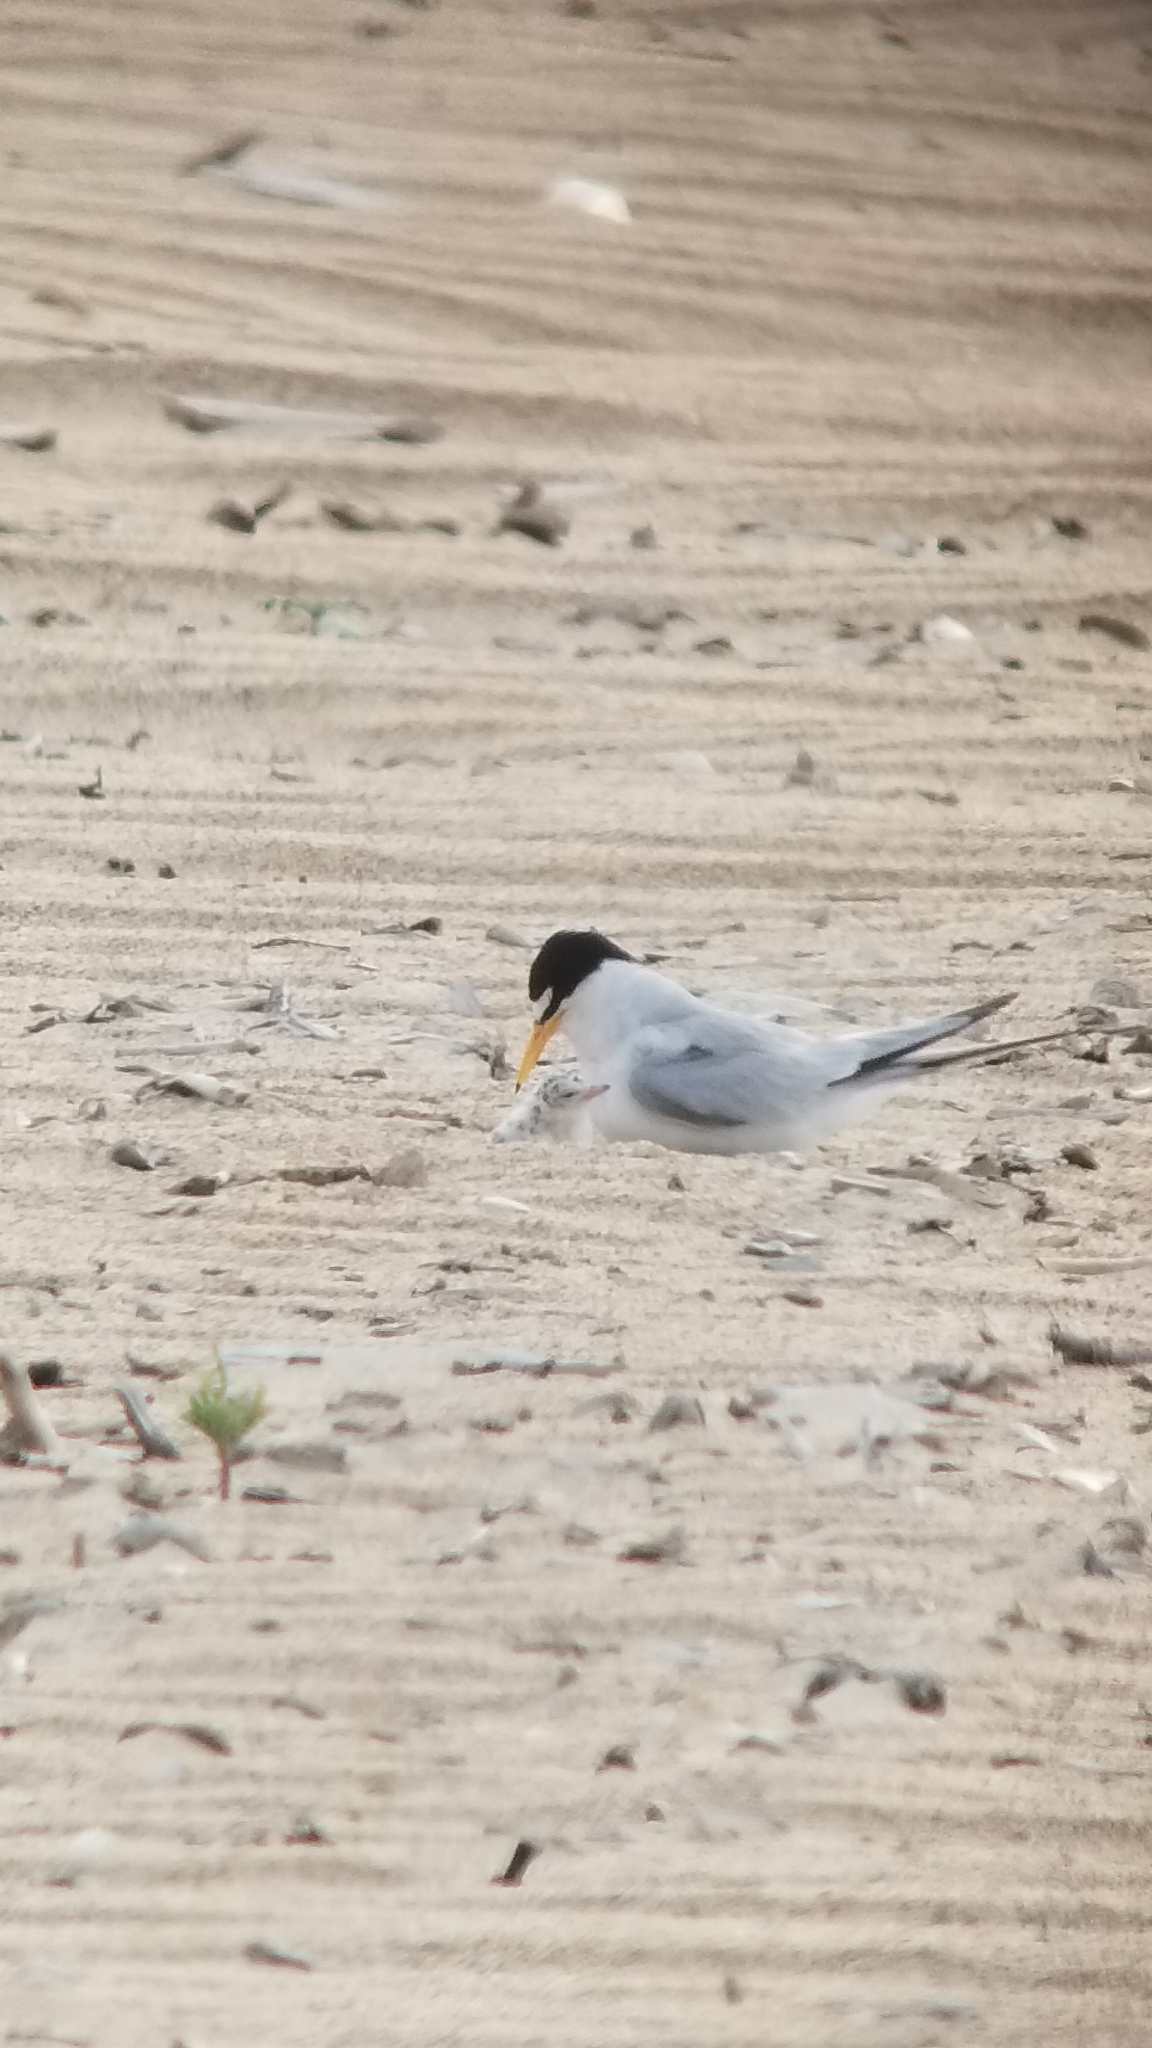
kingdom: Animalia
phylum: Chordata
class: Aves
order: Charadriiformes
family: Laridae
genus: Sternula
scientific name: Sternula antillarum
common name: Least tern
